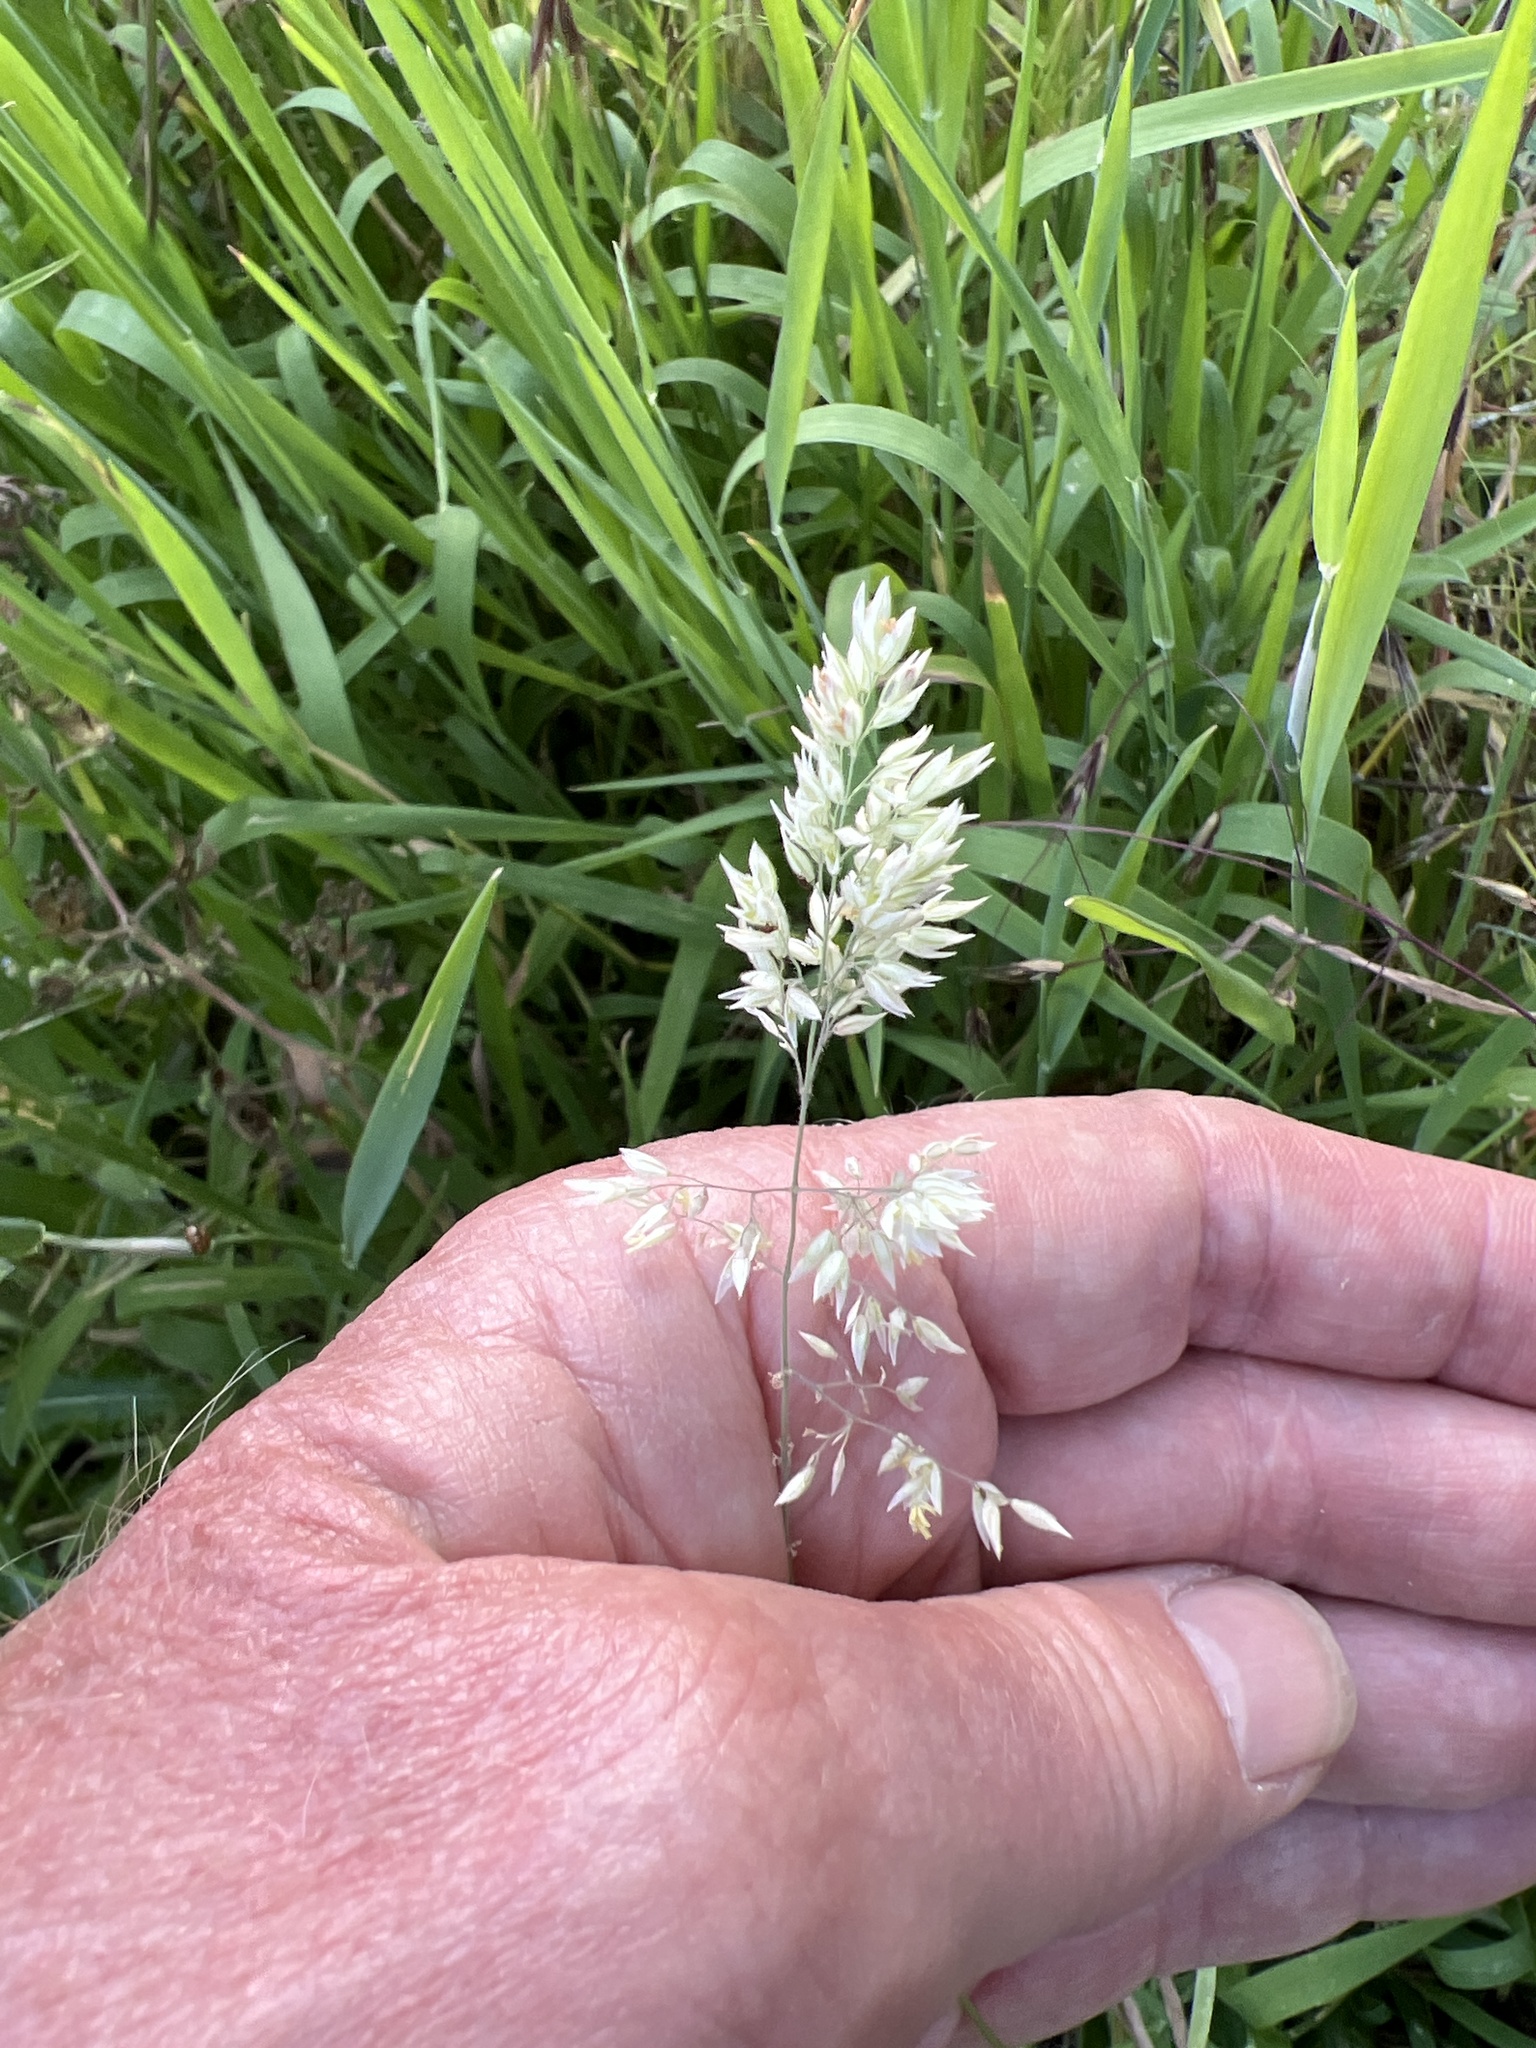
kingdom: Plantae
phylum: Tracheophyta
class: Liliopsida
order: Poales
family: Poaceae
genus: Holcus
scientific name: Holcus lanatus
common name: Yorkshire-fog
